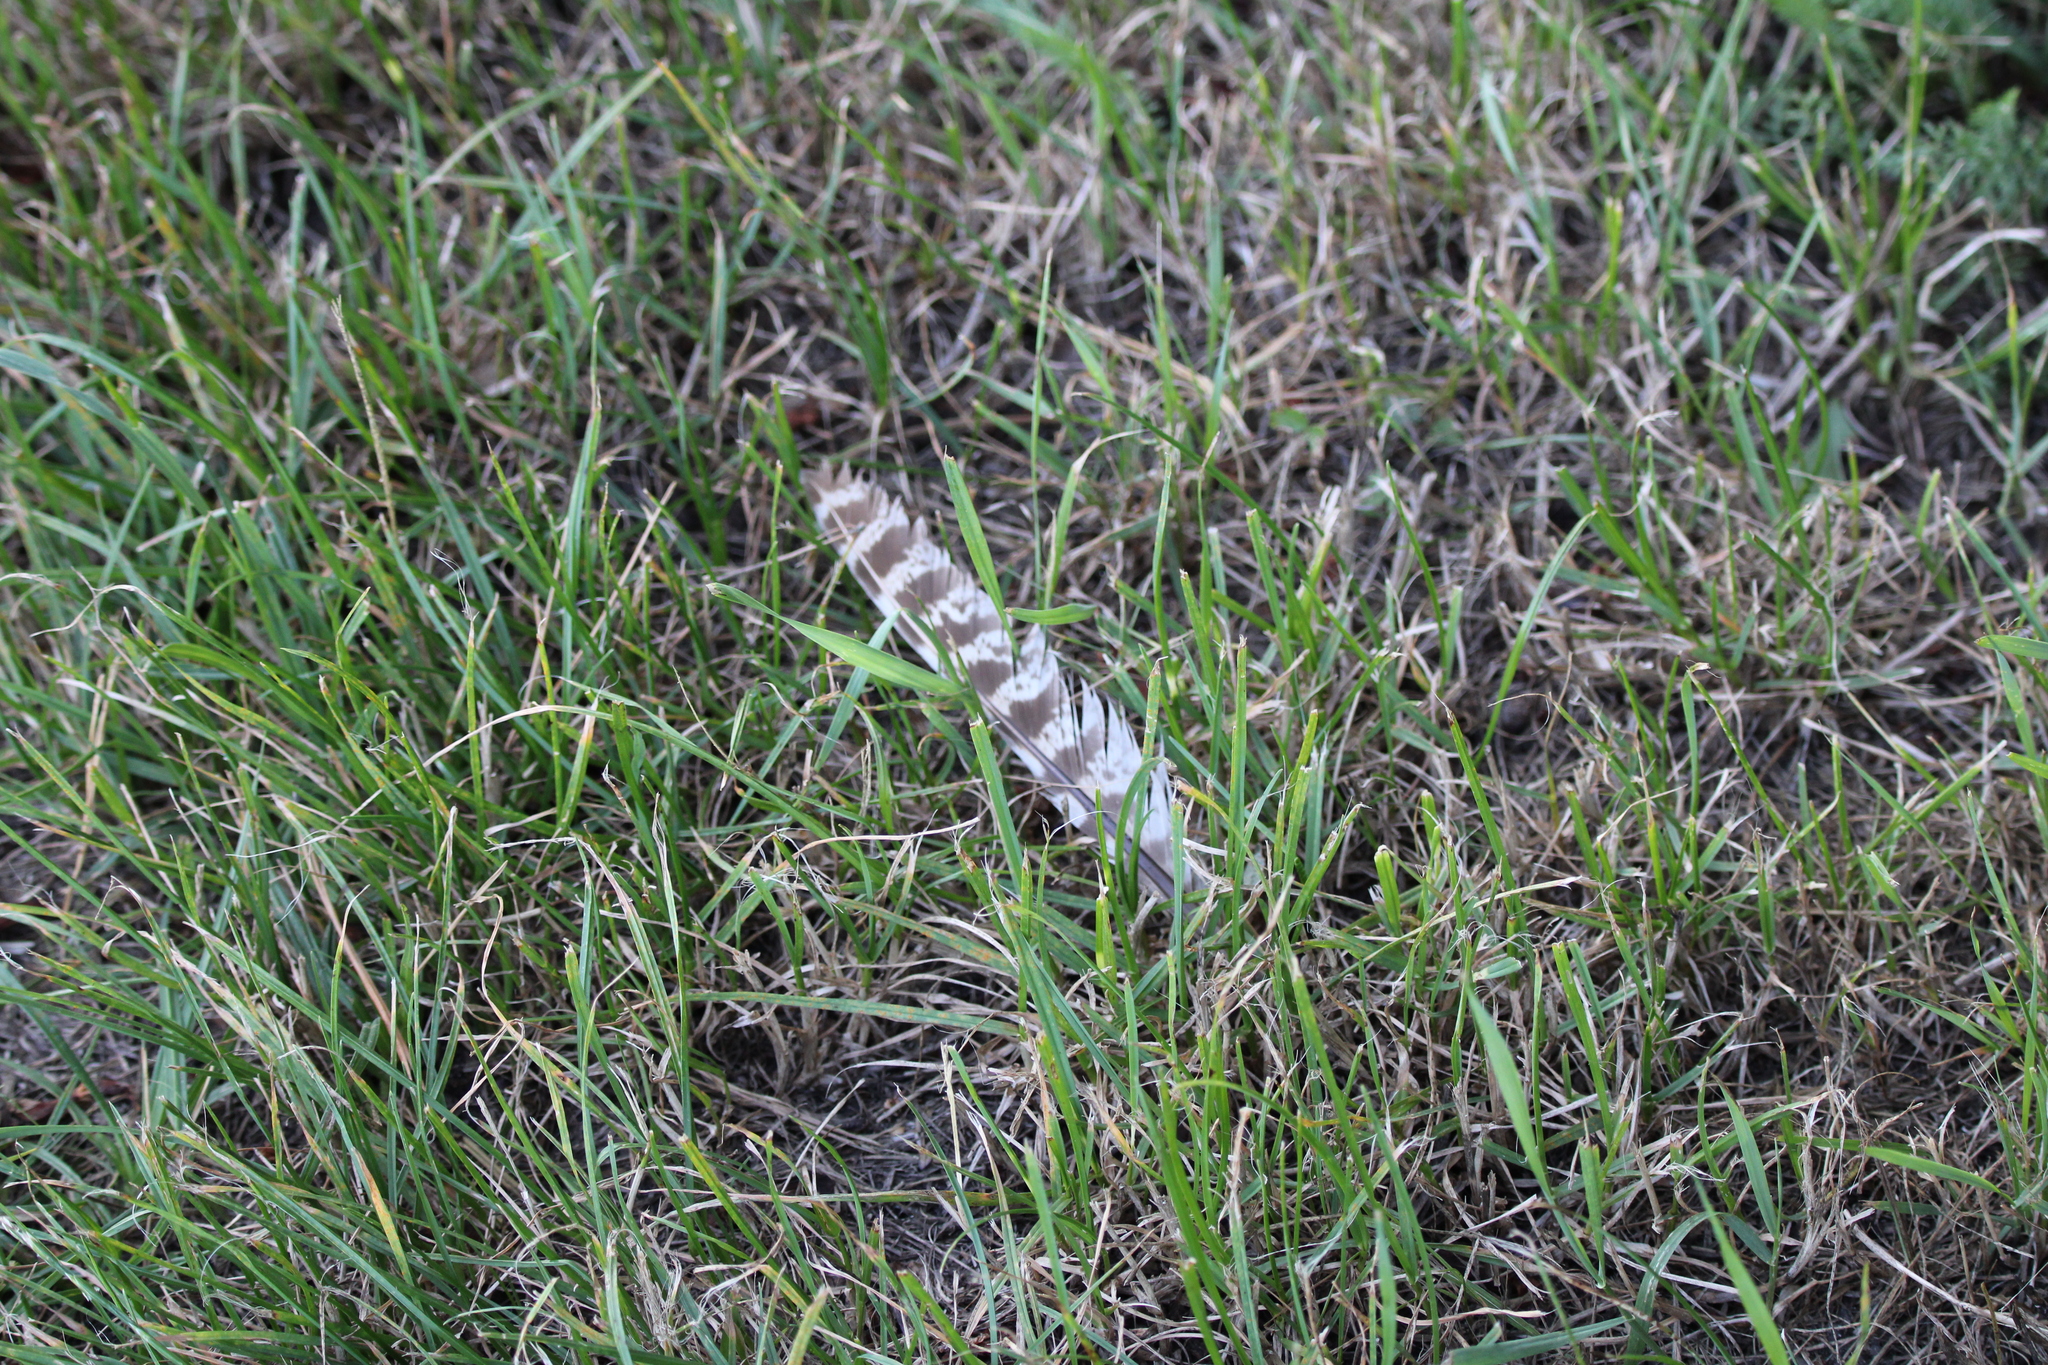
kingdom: Animalia
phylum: Chordata
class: Aves
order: Galliformes
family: Phasianidae
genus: Phasianus
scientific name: Phasianus colchicus
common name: Common pheasant
